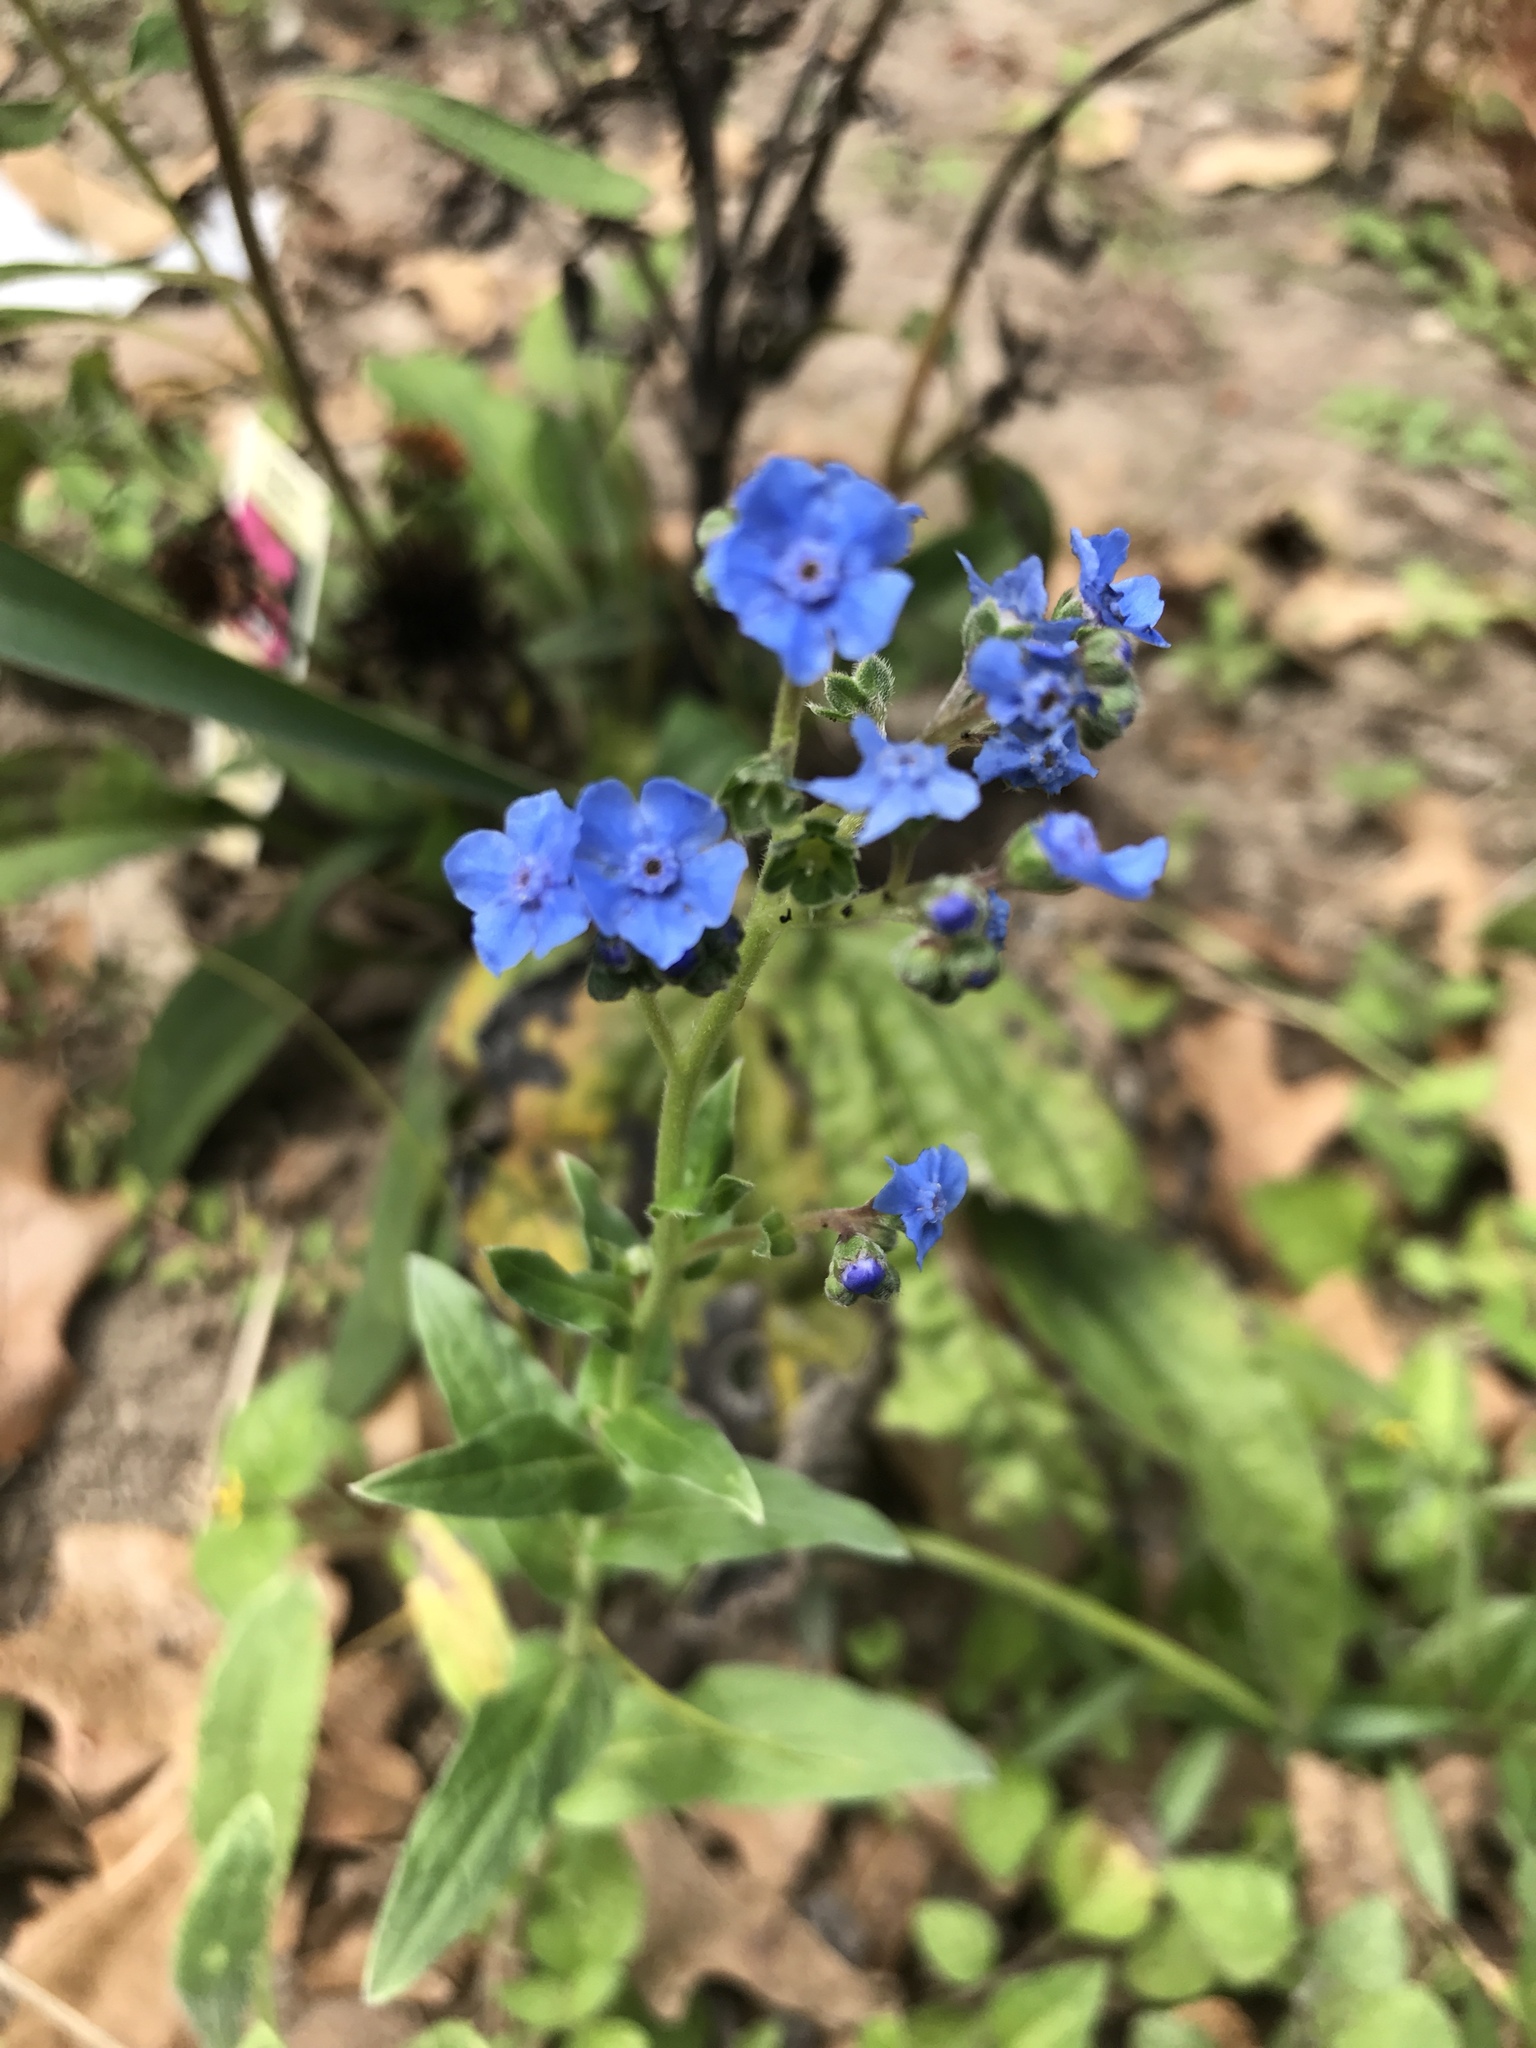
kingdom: Plantae
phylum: Tracheophyta
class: Magnoliopsida
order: Boraginales
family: Boraginaceae
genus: Cynoglossum
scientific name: Cynoglossum amabile
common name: Chinese hound's tongue
